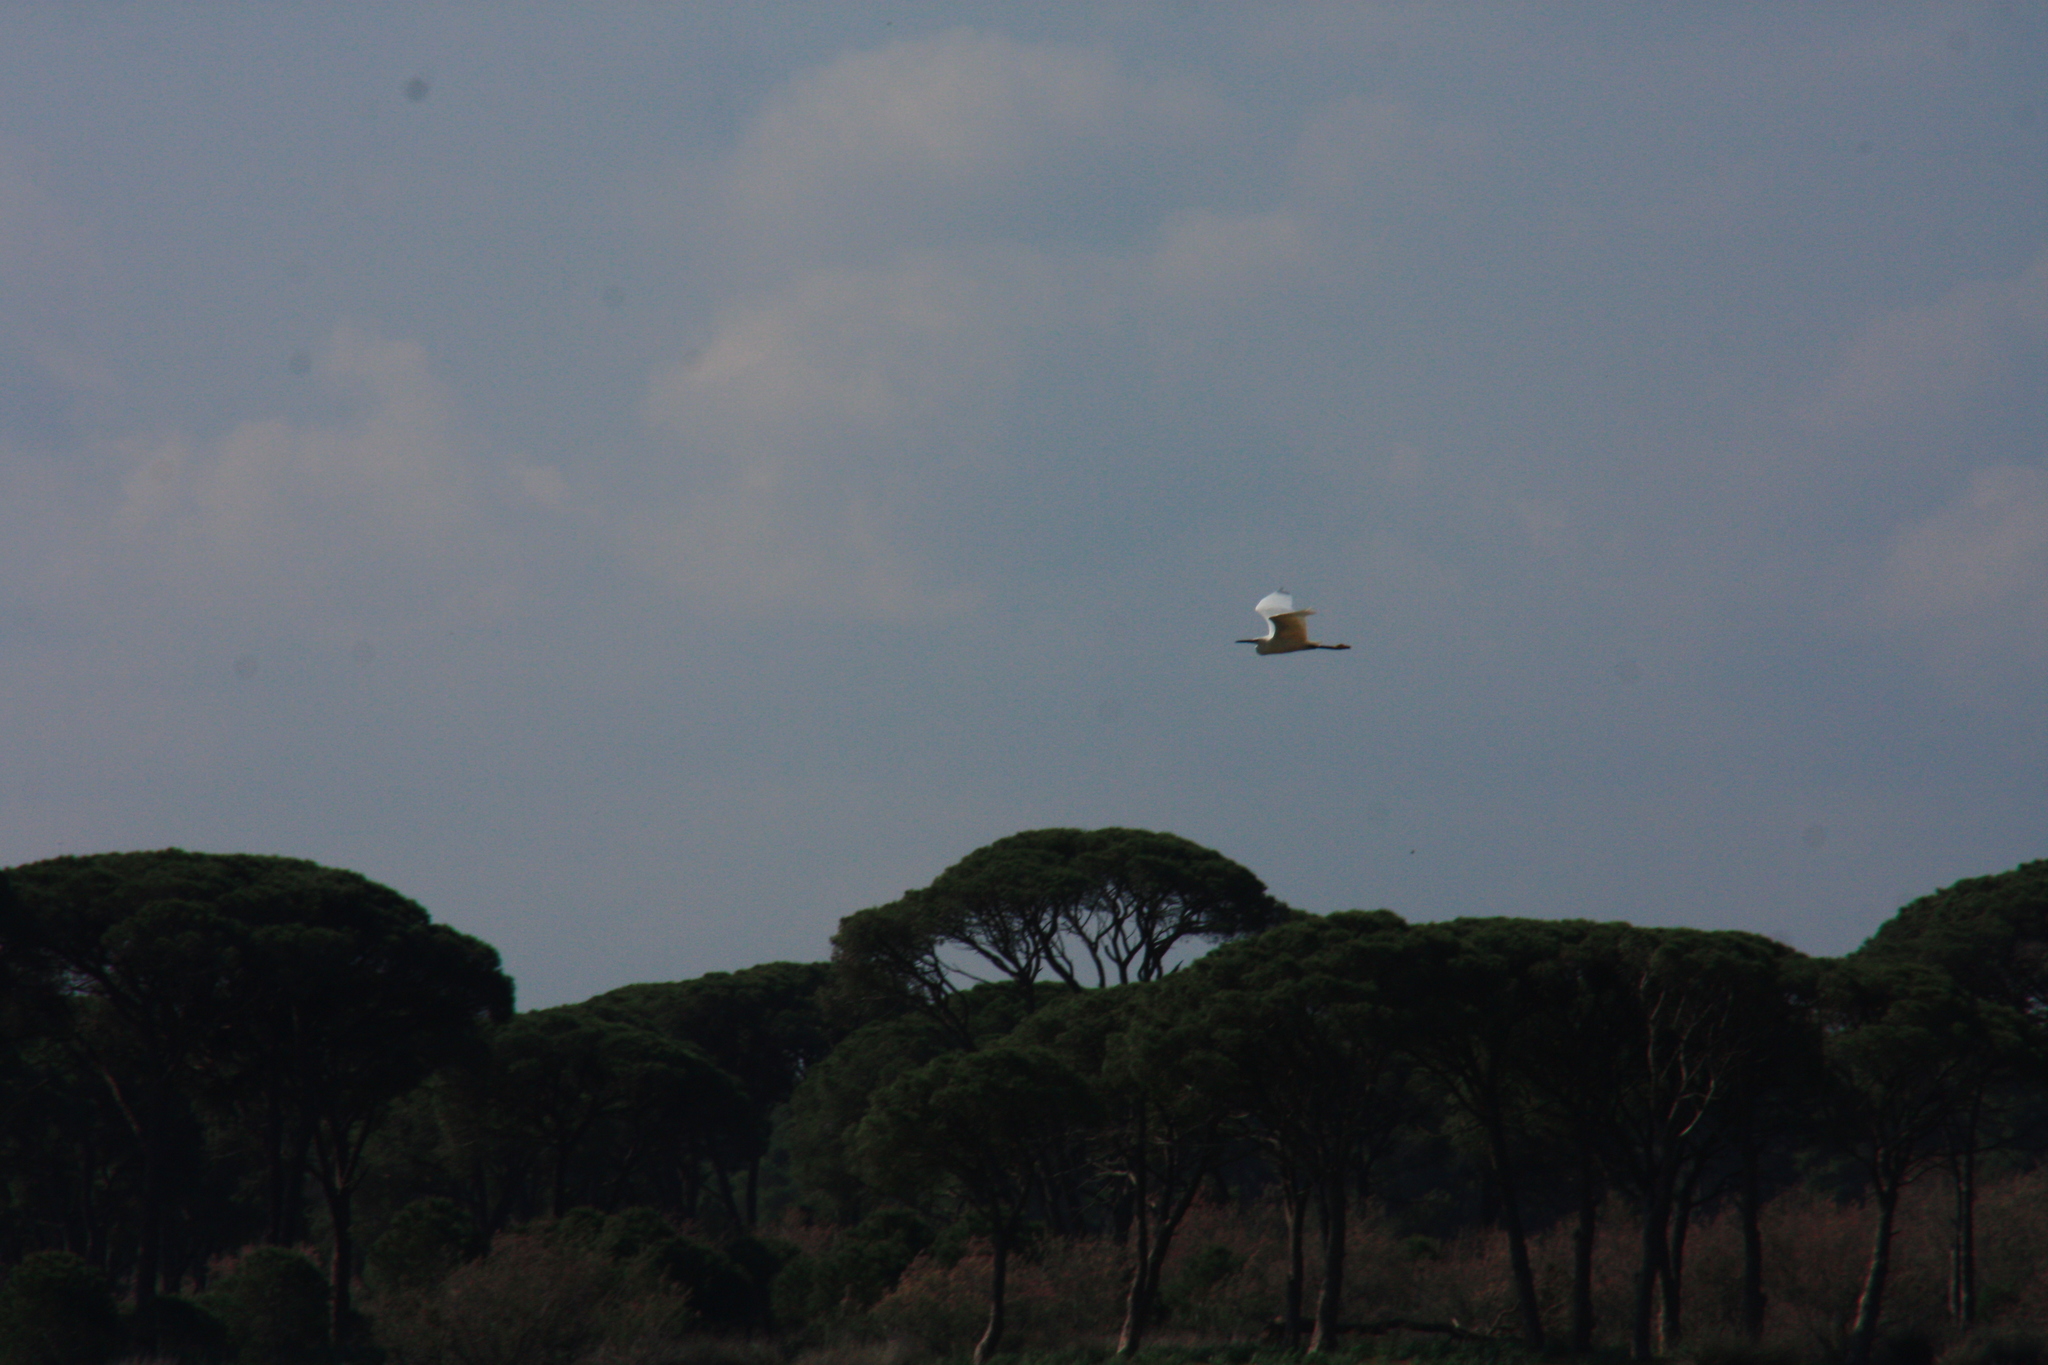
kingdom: Animalia
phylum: Chordata
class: Aves
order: Pelecaniformes
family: Ardeidae
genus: Egretta
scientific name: Egretta garzetta
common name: Little egret
